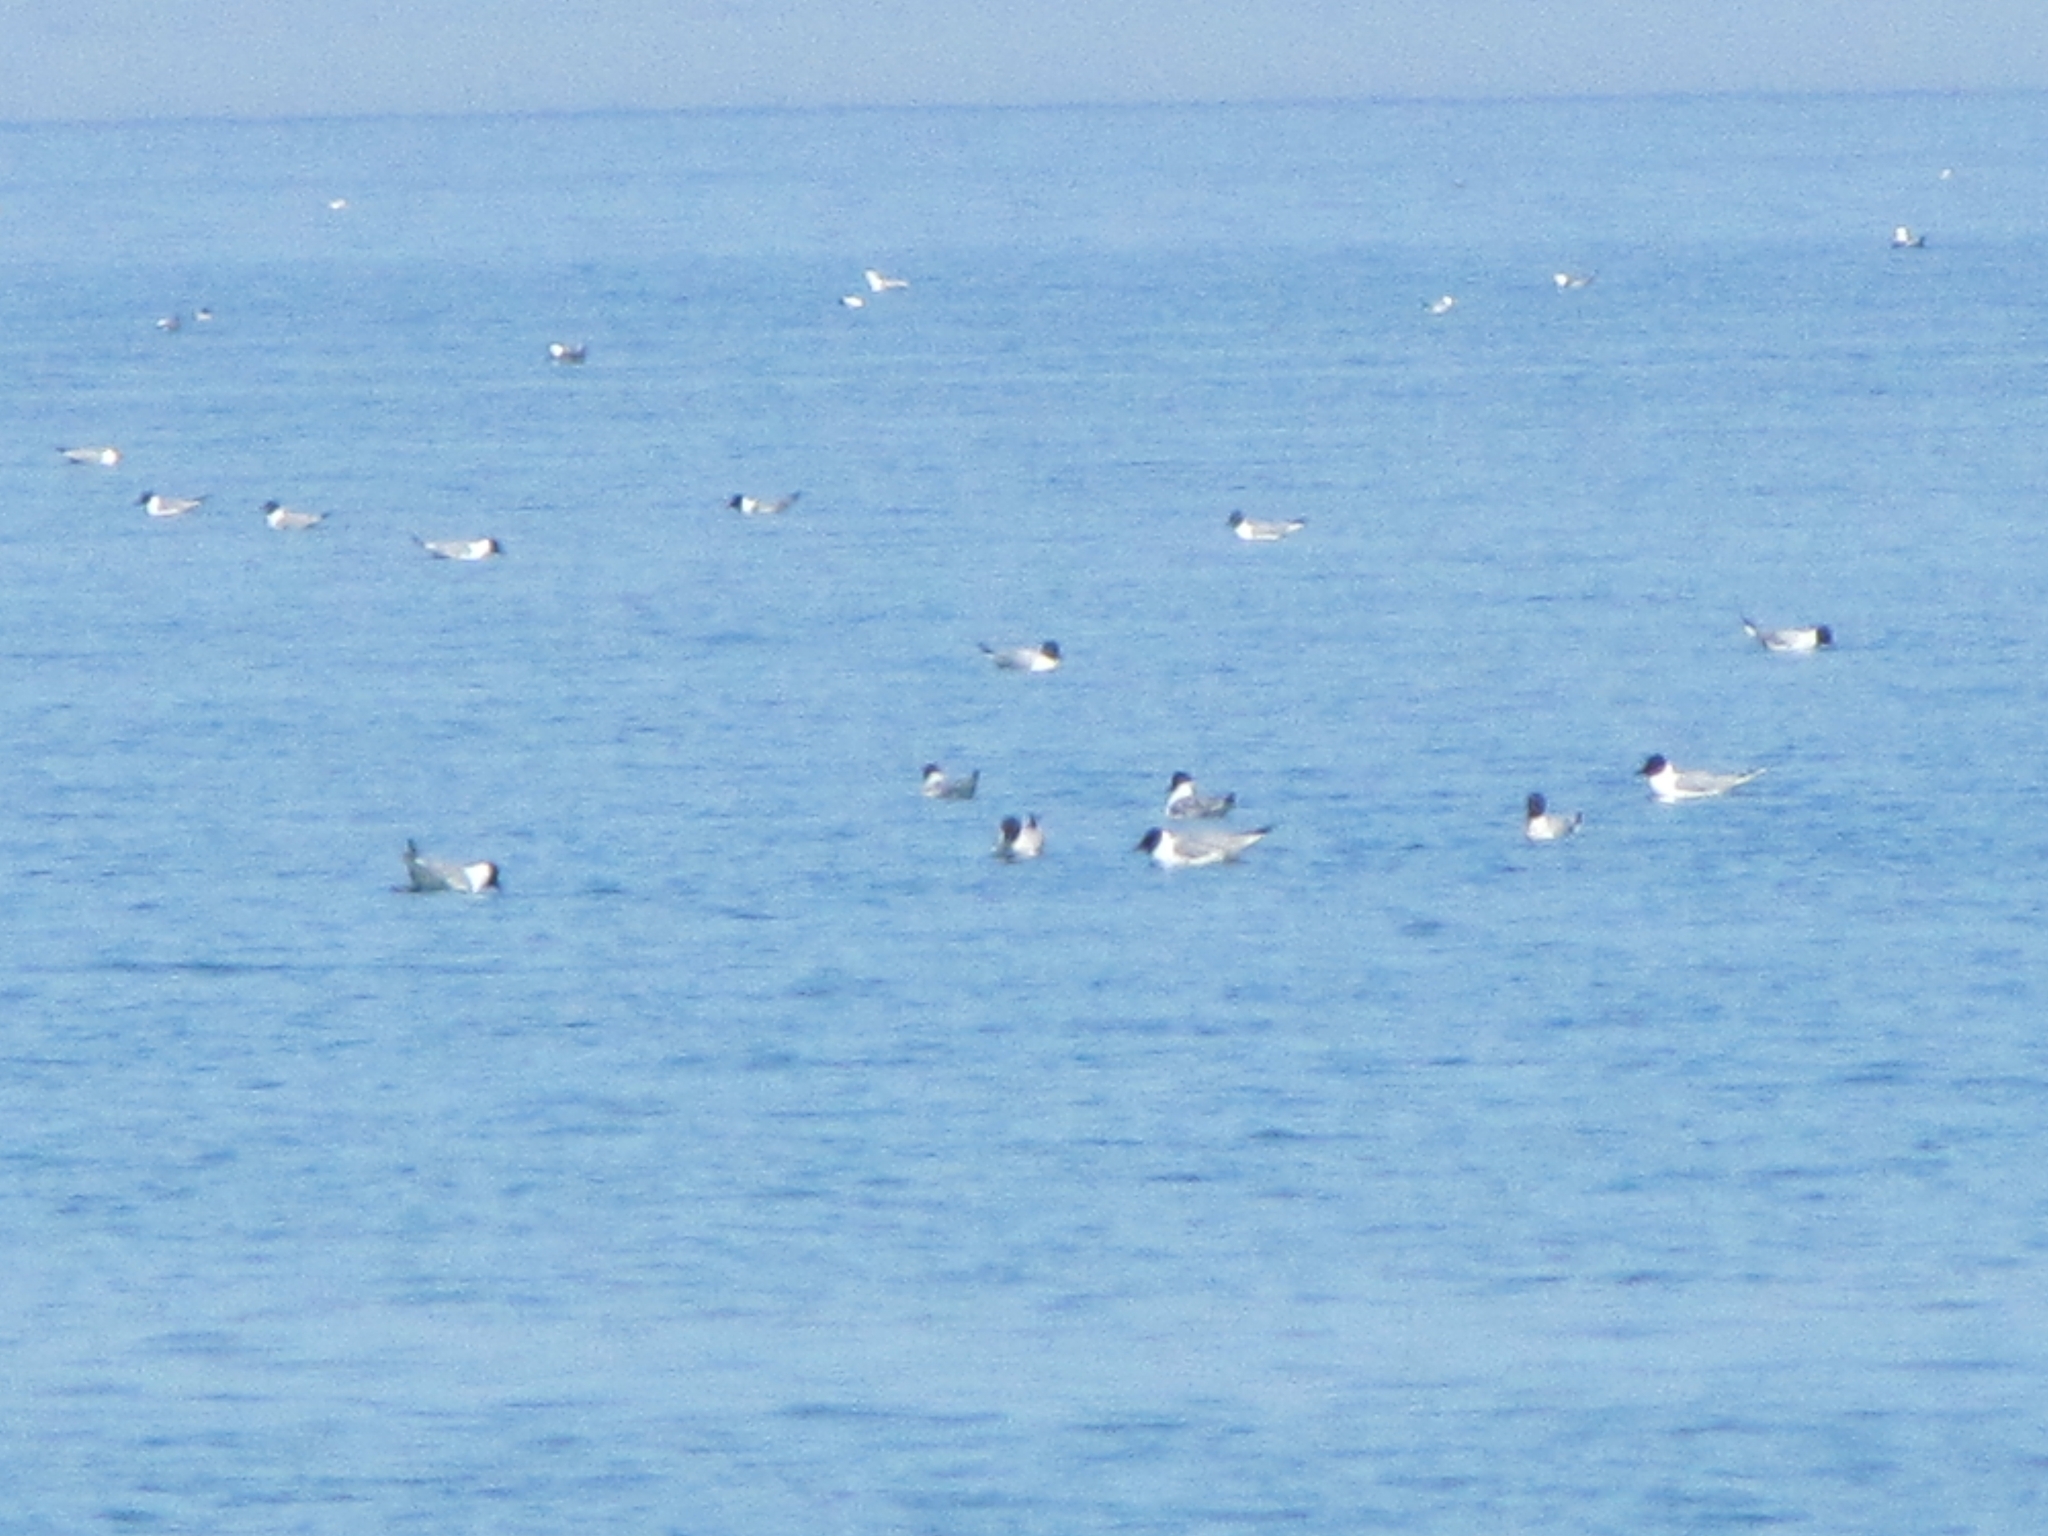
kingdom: Animalia
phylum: Chordata
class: Aves
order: Charadriiformes
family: Laridae
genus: Chroicocephalus
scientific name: Chroicocephalus philadelphia
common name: Bonaparte's gull
